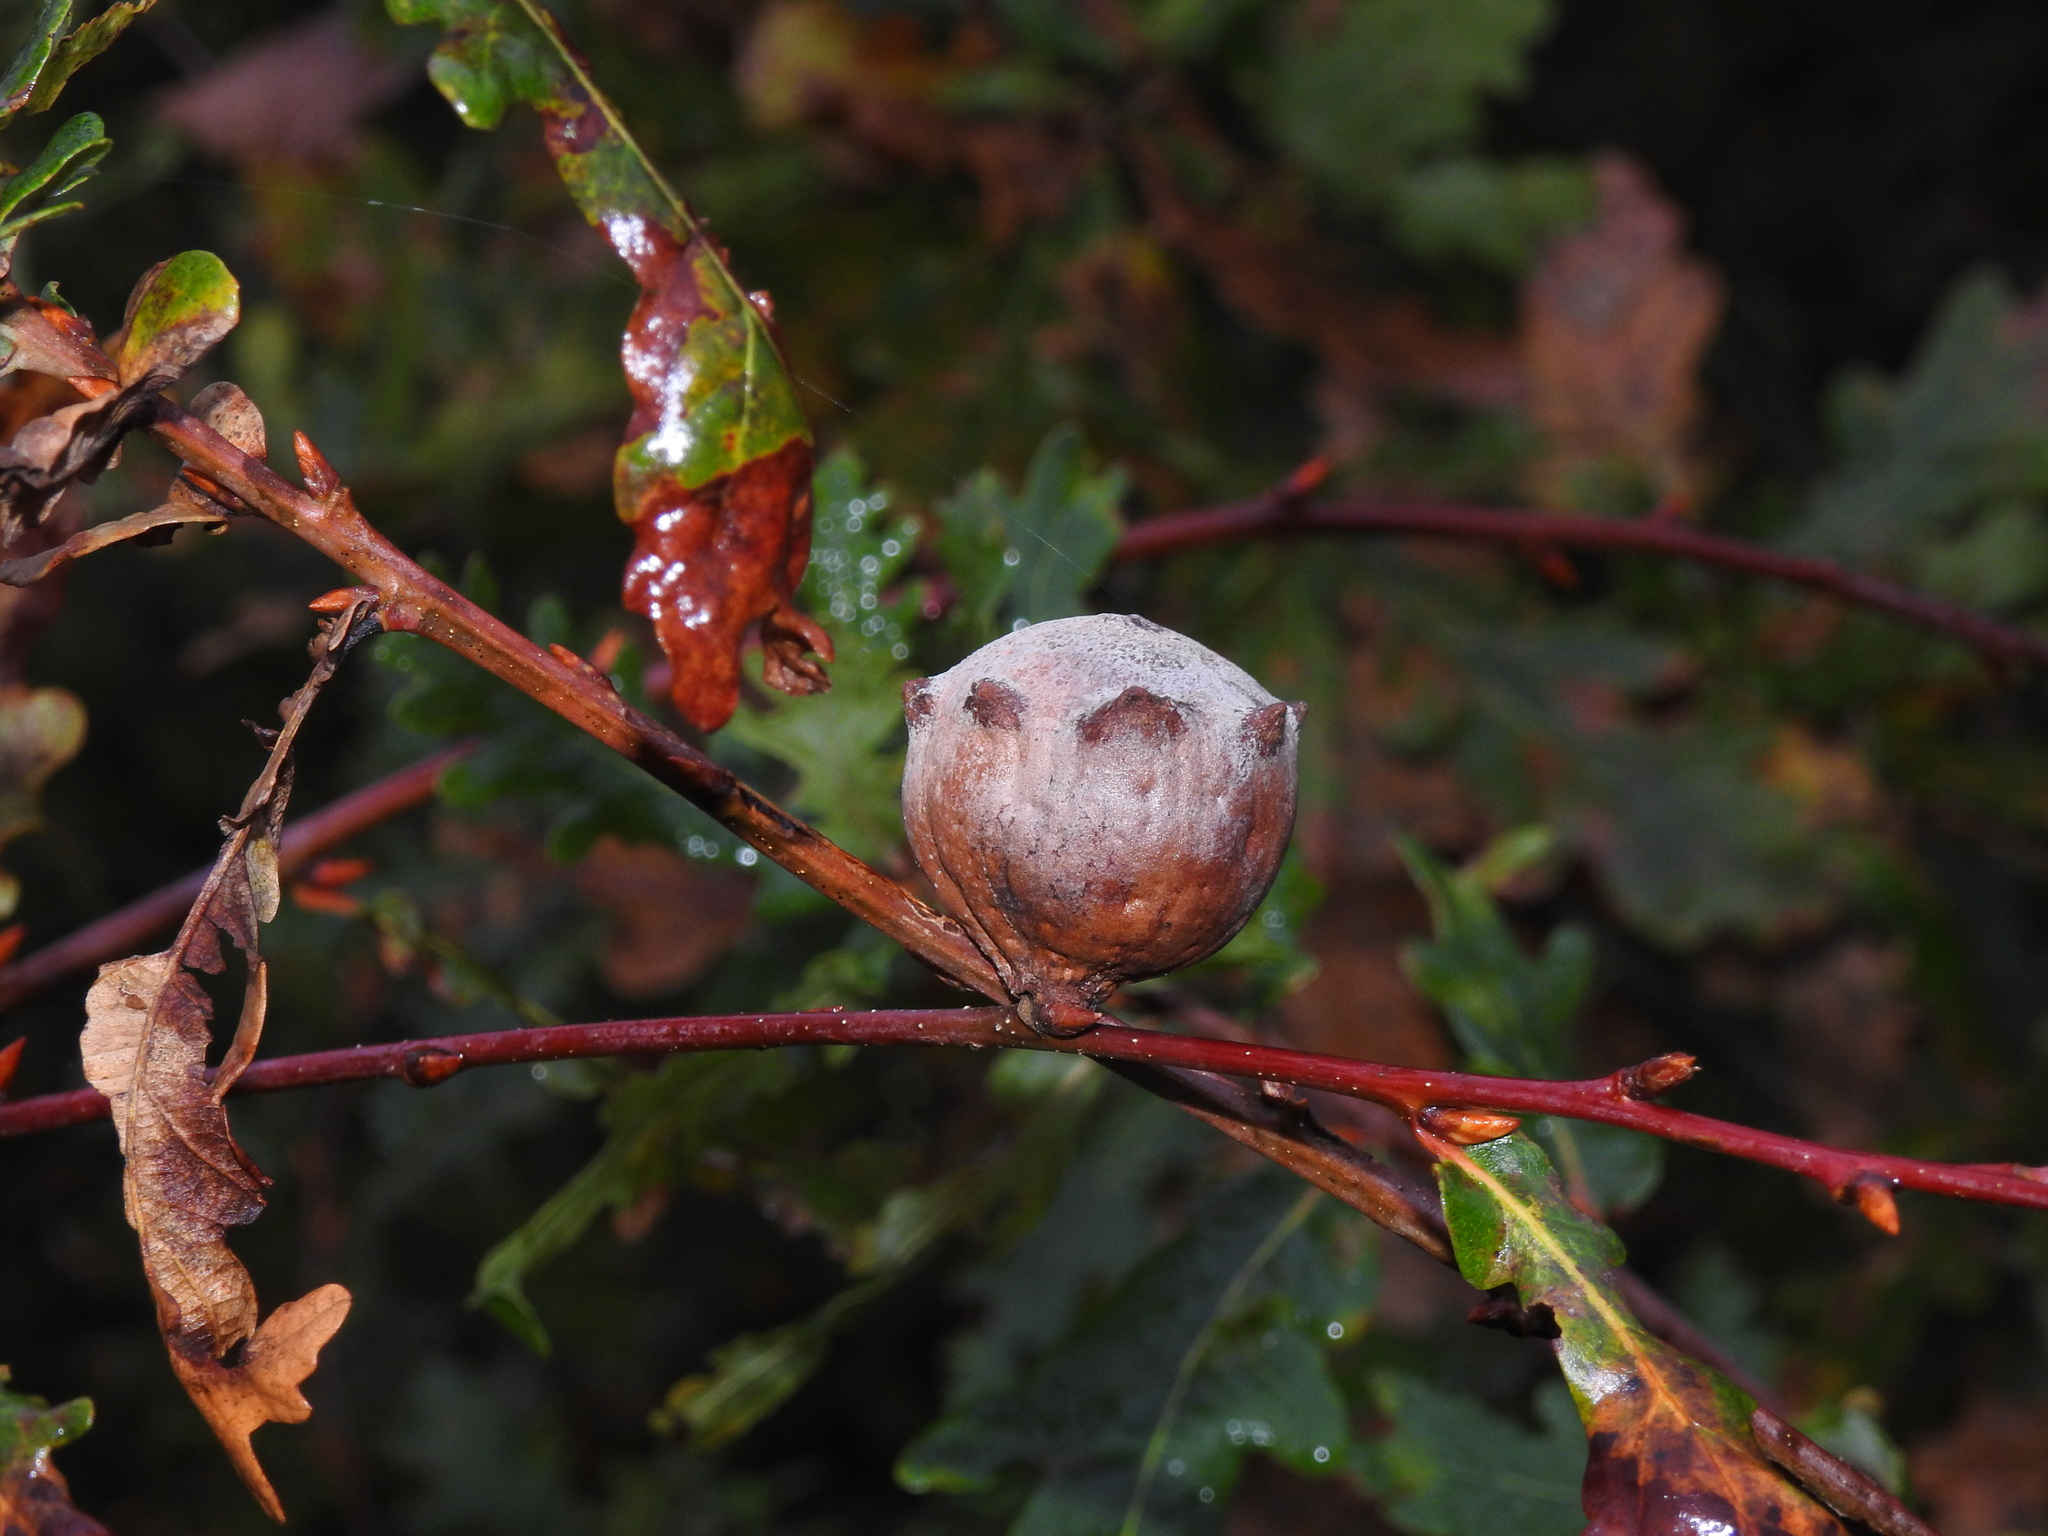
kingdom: Animalia
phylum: Arthropoda
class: Insecta
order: Hymenoptera
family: Cynipidae
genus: Andricus
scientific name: Andricus quercustozae
